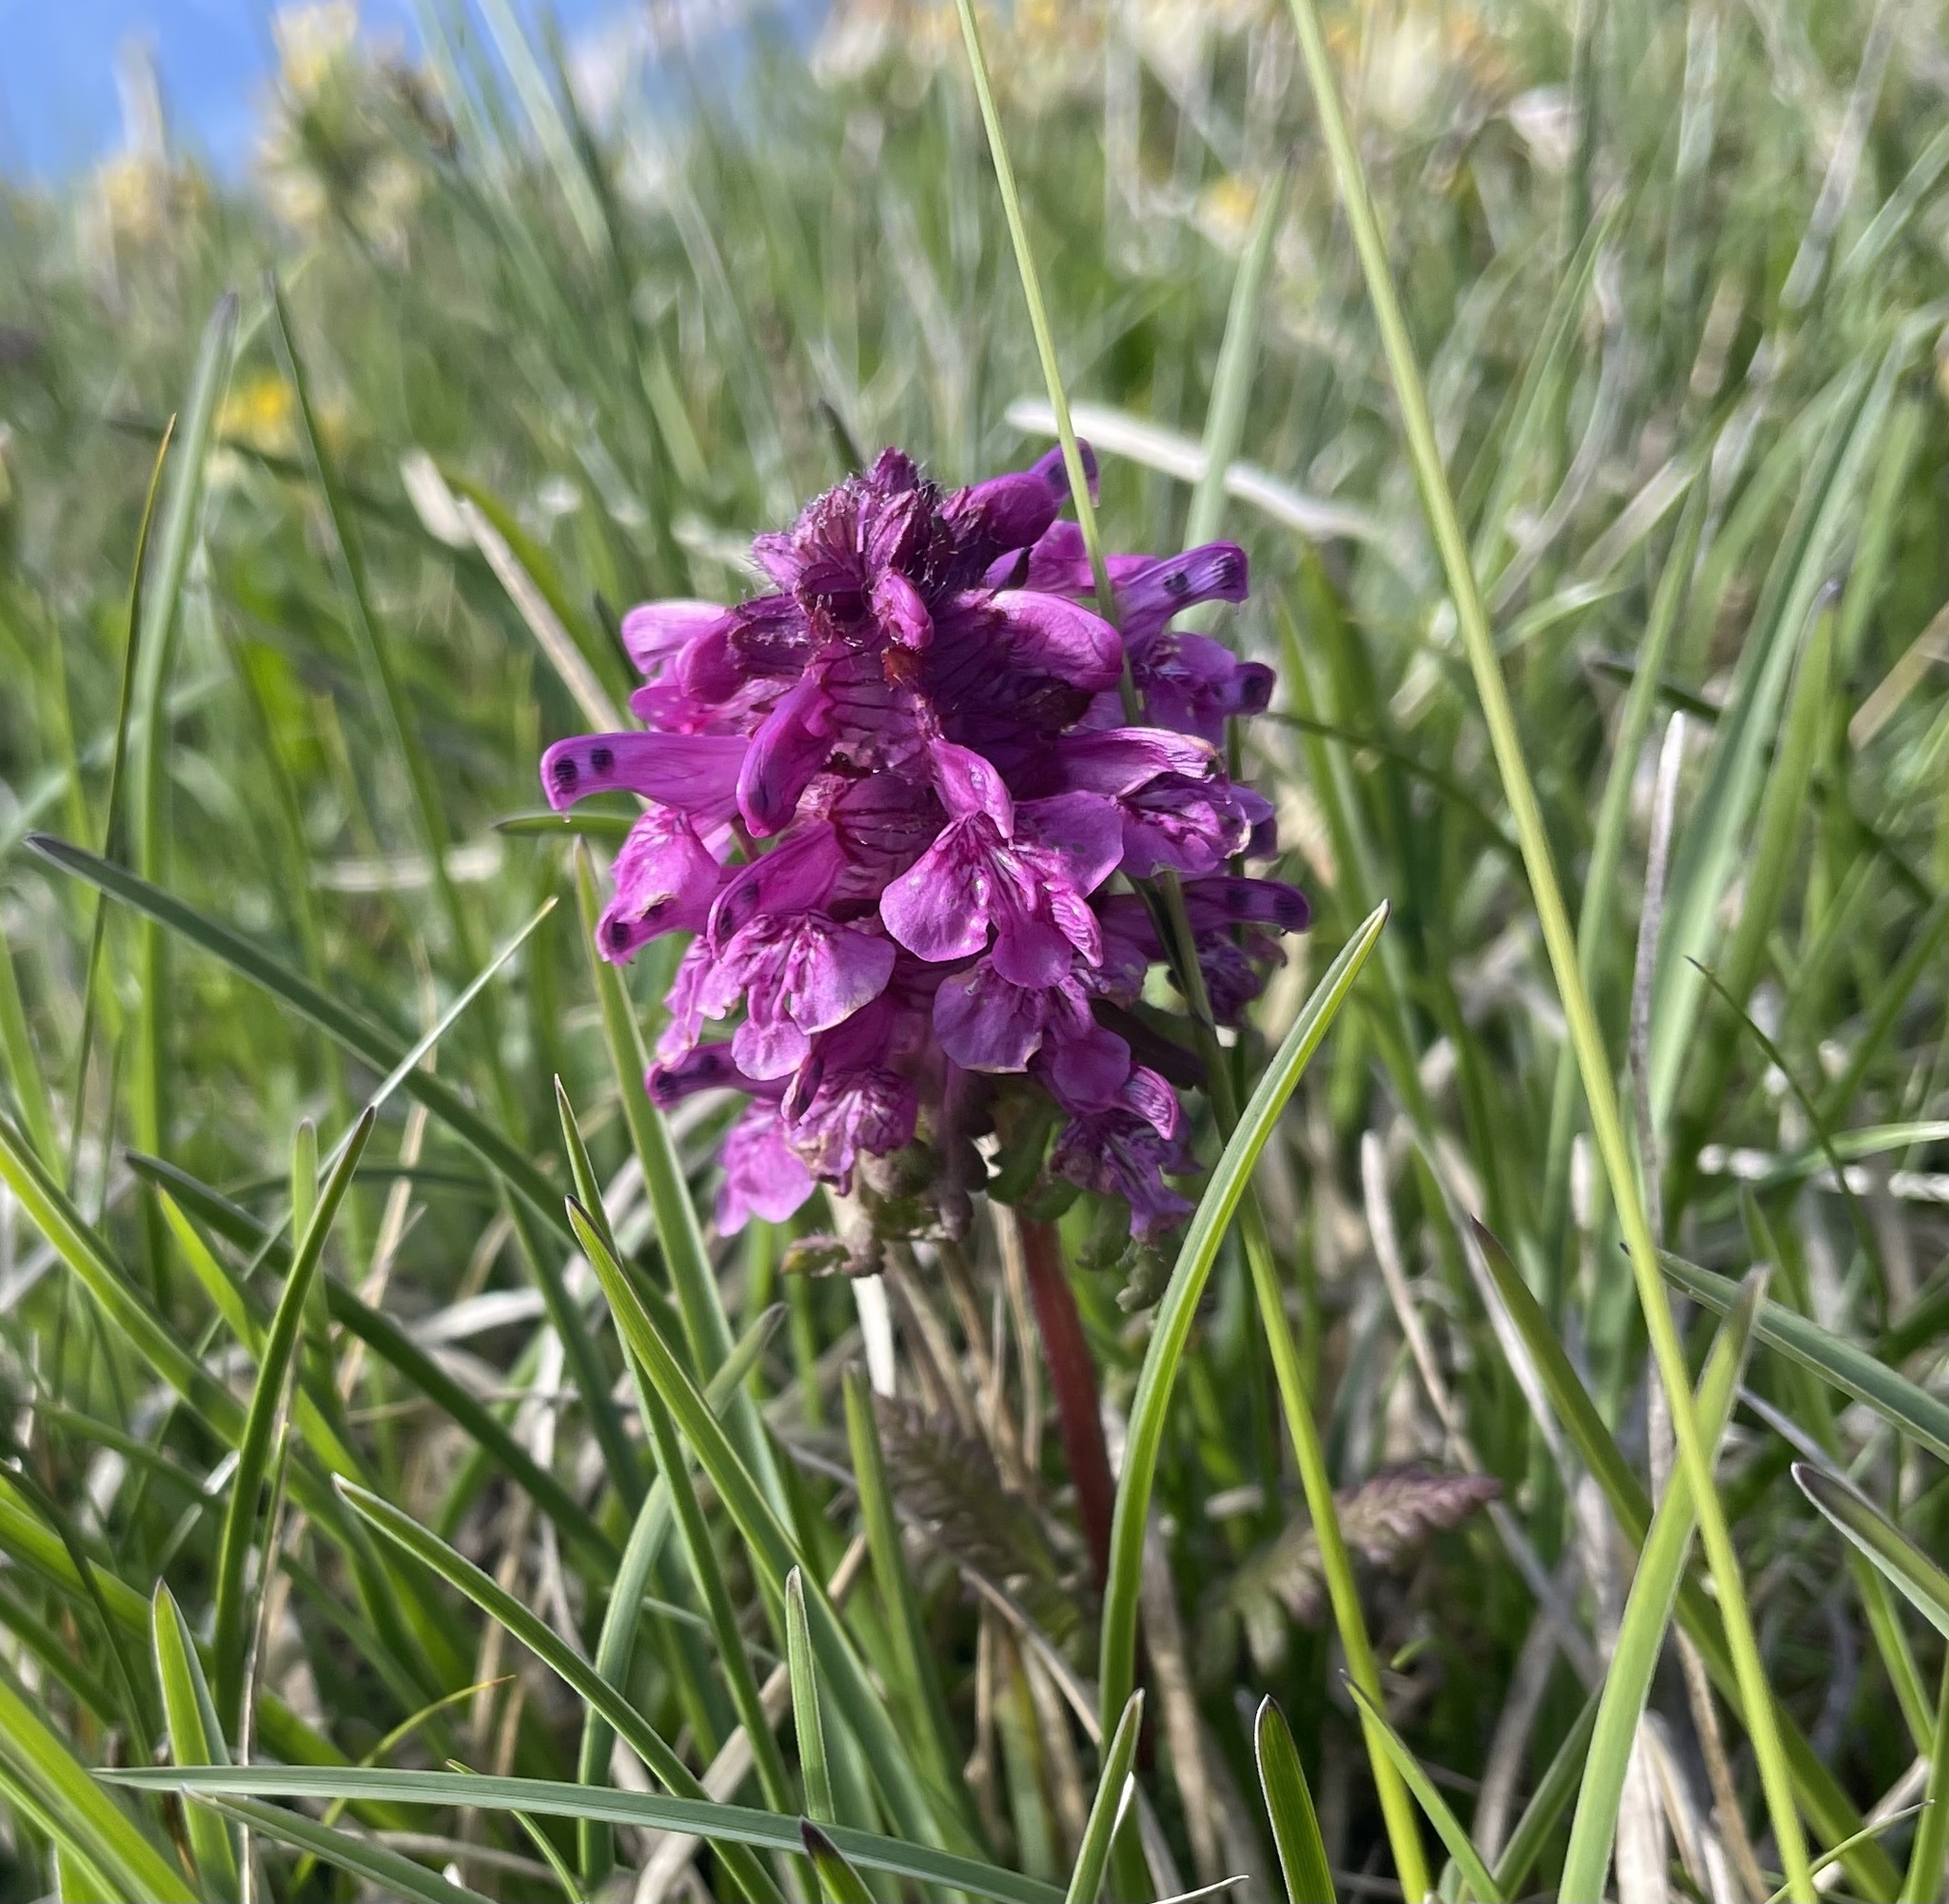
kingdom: Plantae
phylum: Tracheophyta
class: Magnoliopsida
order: Lamiales
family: Orobanchaceae
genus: Pedicularis
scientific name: Pedicularis verticillata
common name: Whorled lousewort
